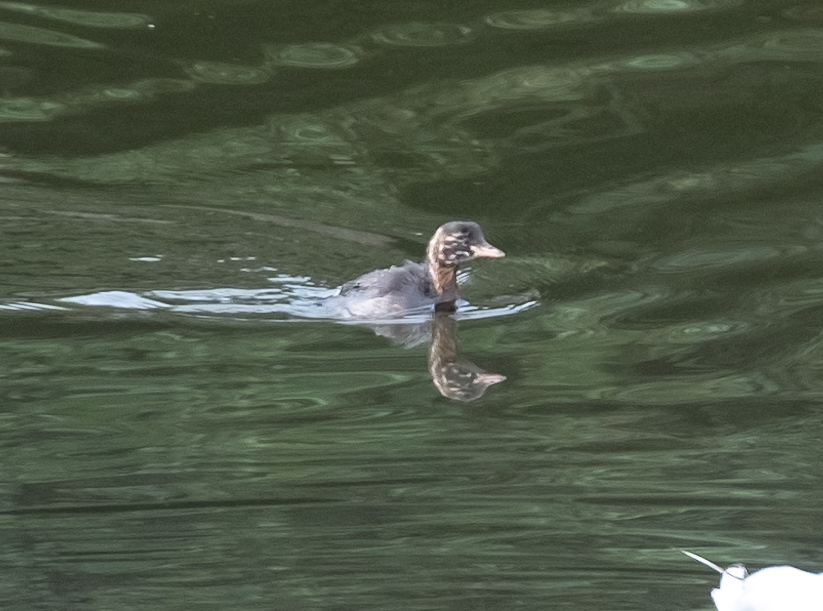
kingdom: Animalia
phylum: Chordata
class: Aves
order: Podicipediformes
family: Podicipedidae
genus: Tachybaptus
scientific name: Tachybaptus ruficollis
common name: Little grebe
